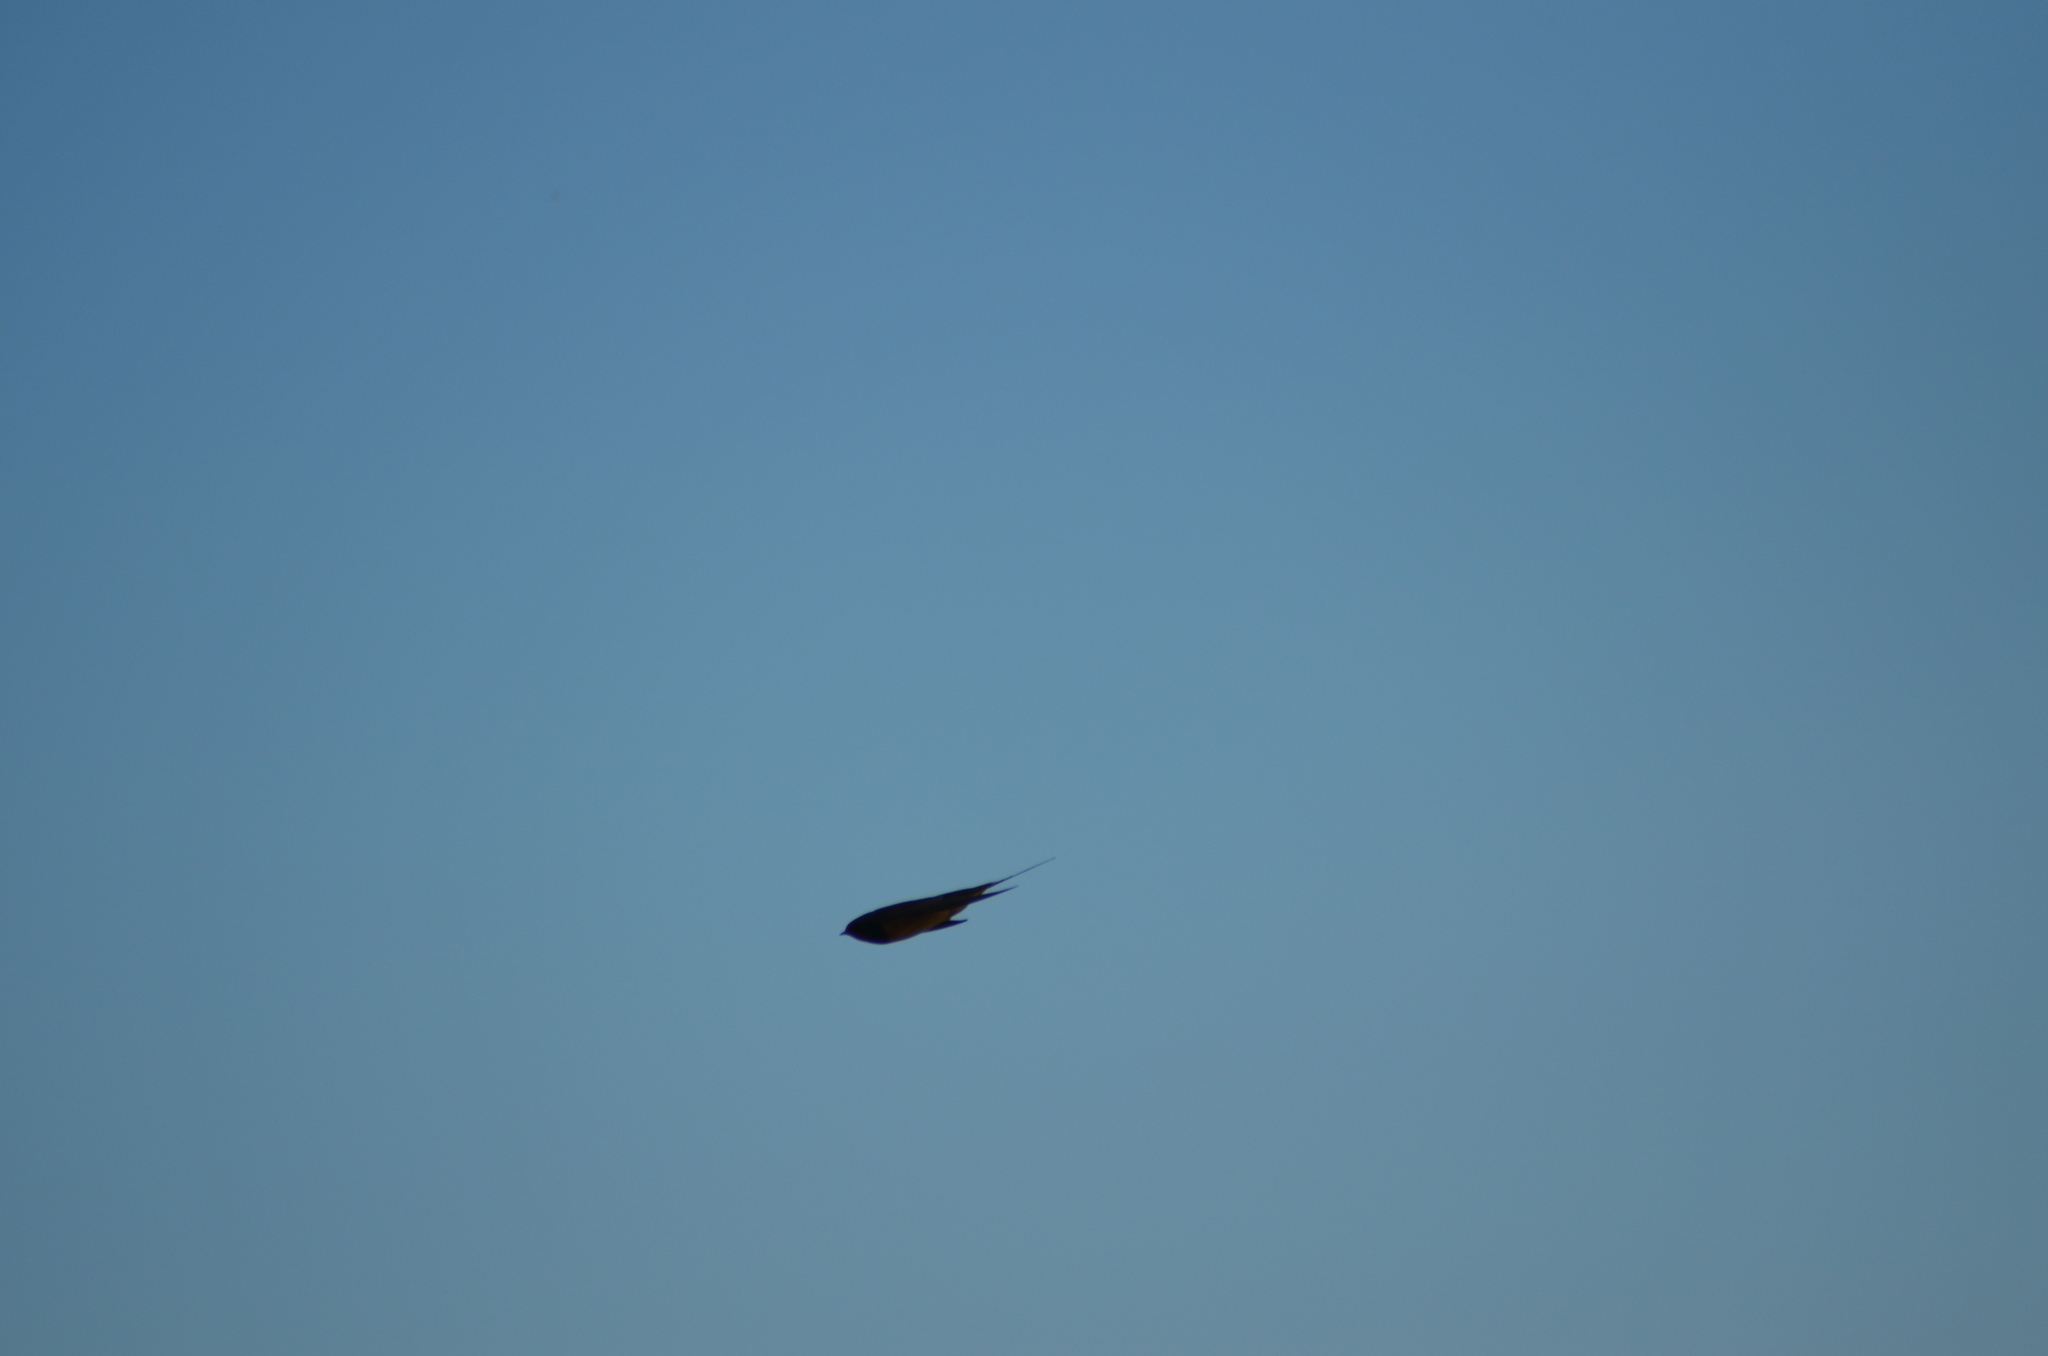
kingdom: Animalia
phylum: Chordata
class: Aves
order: Passeriformes
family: Hirundinidae
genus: Hirundo
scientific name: Hirundo rustica
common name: Barn swallow
